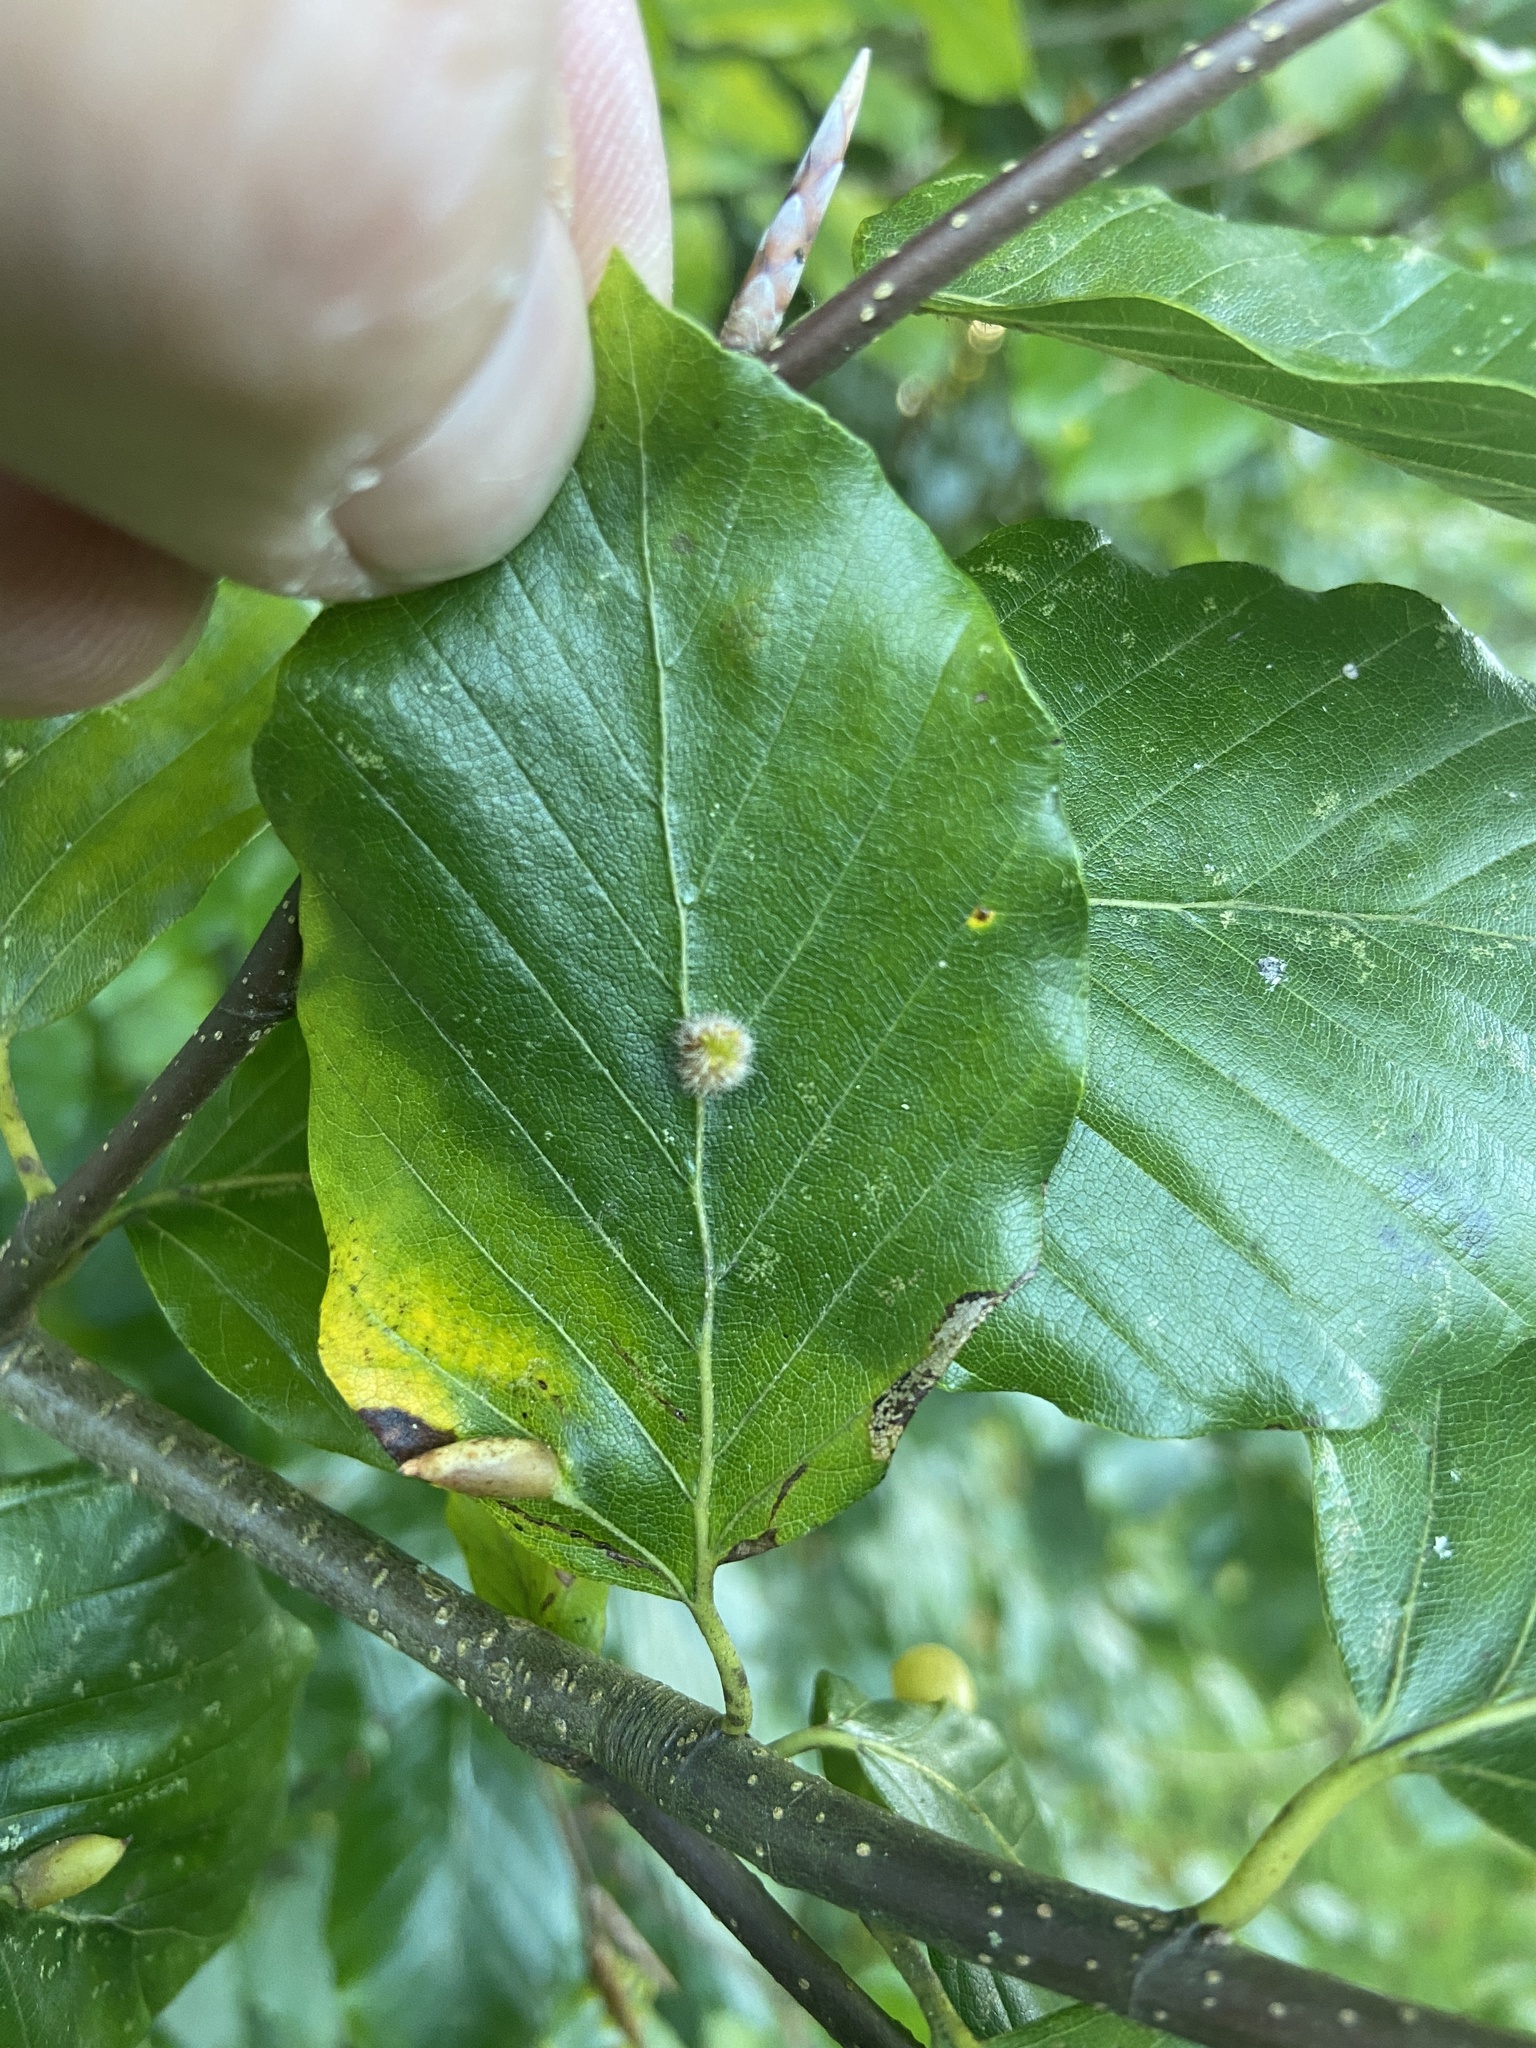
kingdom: Animalia
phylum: Arthropoda
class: Insecta
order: Diptera
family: Cecidomyiidae
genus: Hartigiola
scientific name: Hartigiola annulipes
